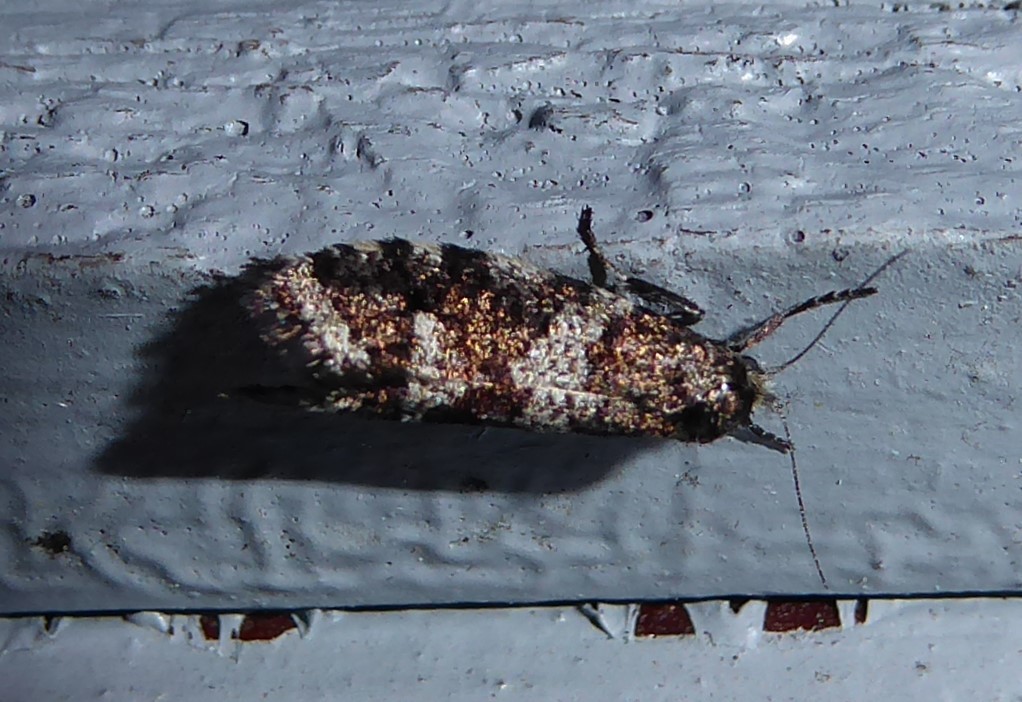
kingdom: Animalia
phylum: Arthropoda
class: Insecta
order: Lepidoptera
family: Psychidae
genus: Lepidoscia
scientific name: Lepidoscia heliochares
